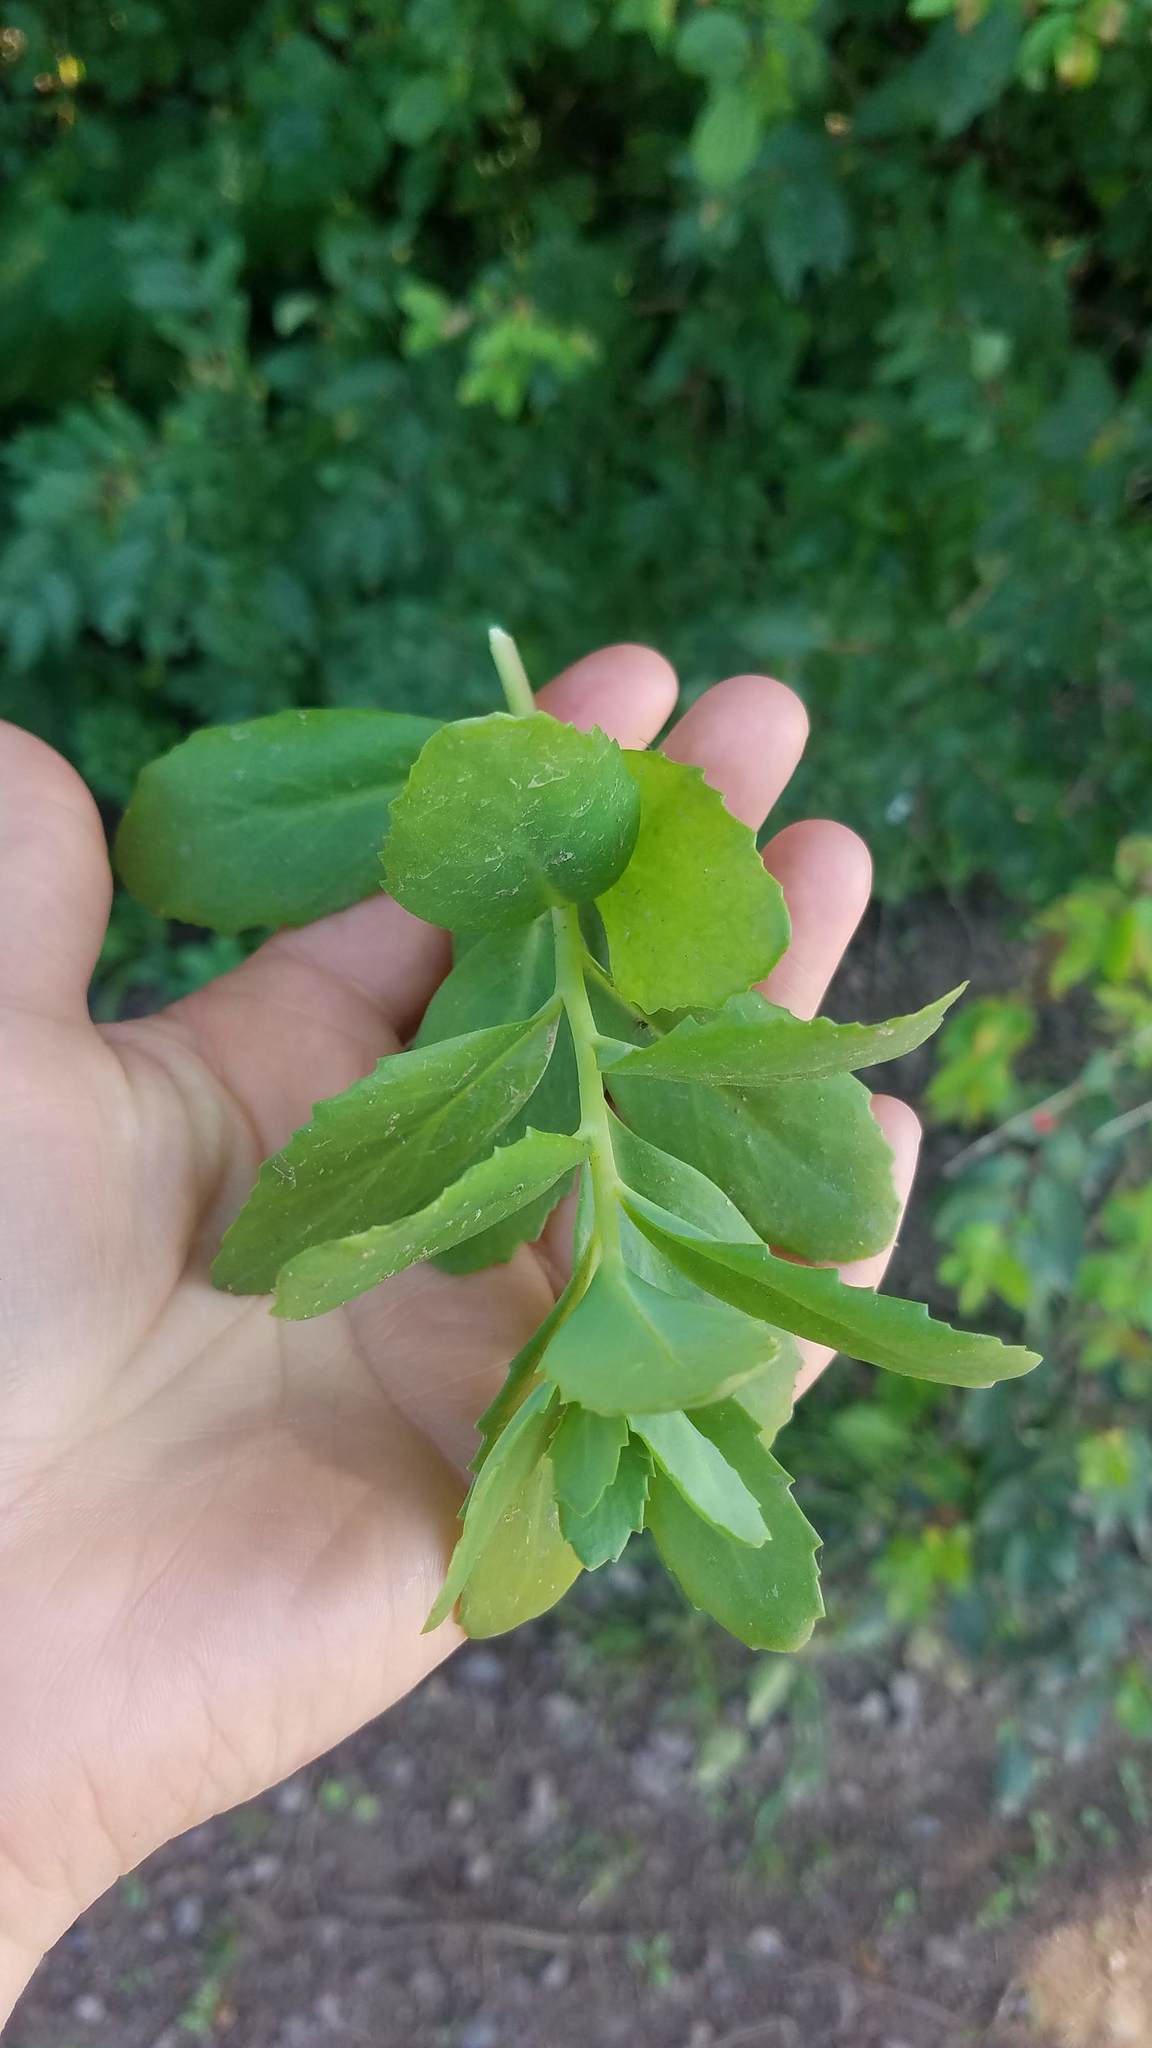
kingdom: Plantae
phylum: Tracheophyta
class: Magnoliopsida
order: Saxifragales
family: Crassulaceae
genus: Hylotelephium
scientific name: Hylotelephium telephium
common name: Live-forever
